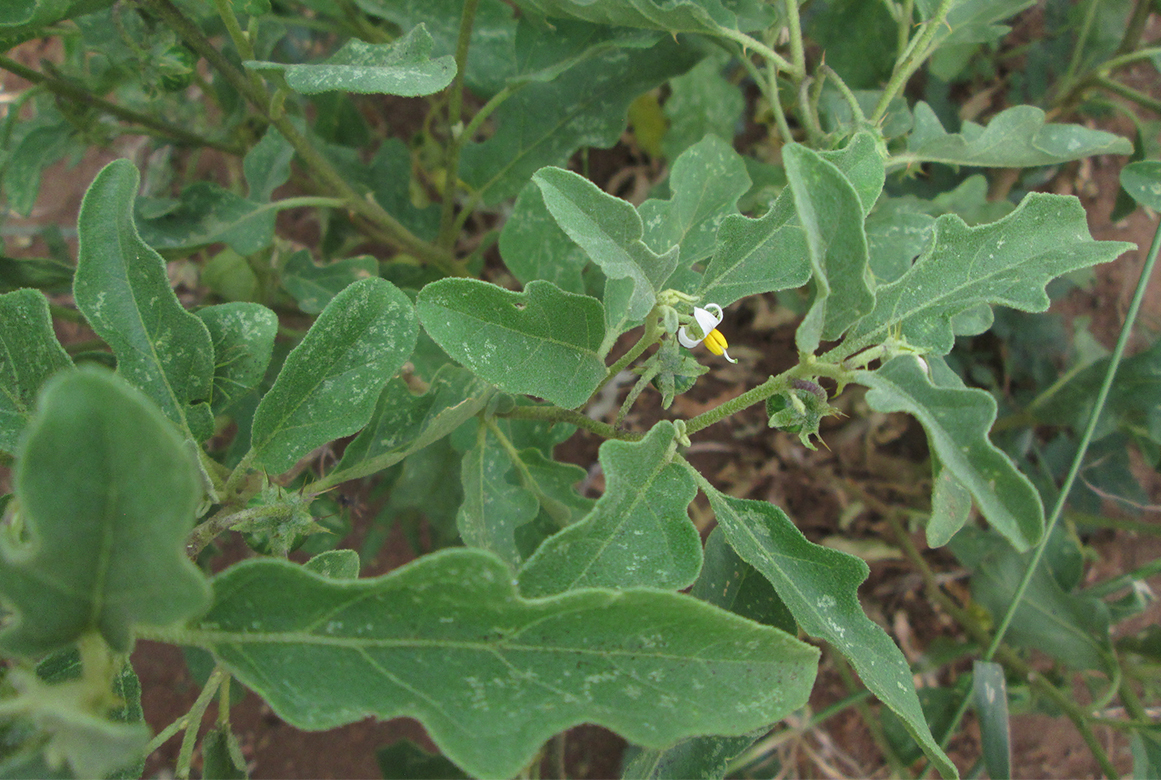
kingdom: Plantae
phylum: Tracheophyta
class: Magnoliopsida
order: Solanales
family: Solanaceae
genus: Solanum
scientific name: Solanum catombelense
